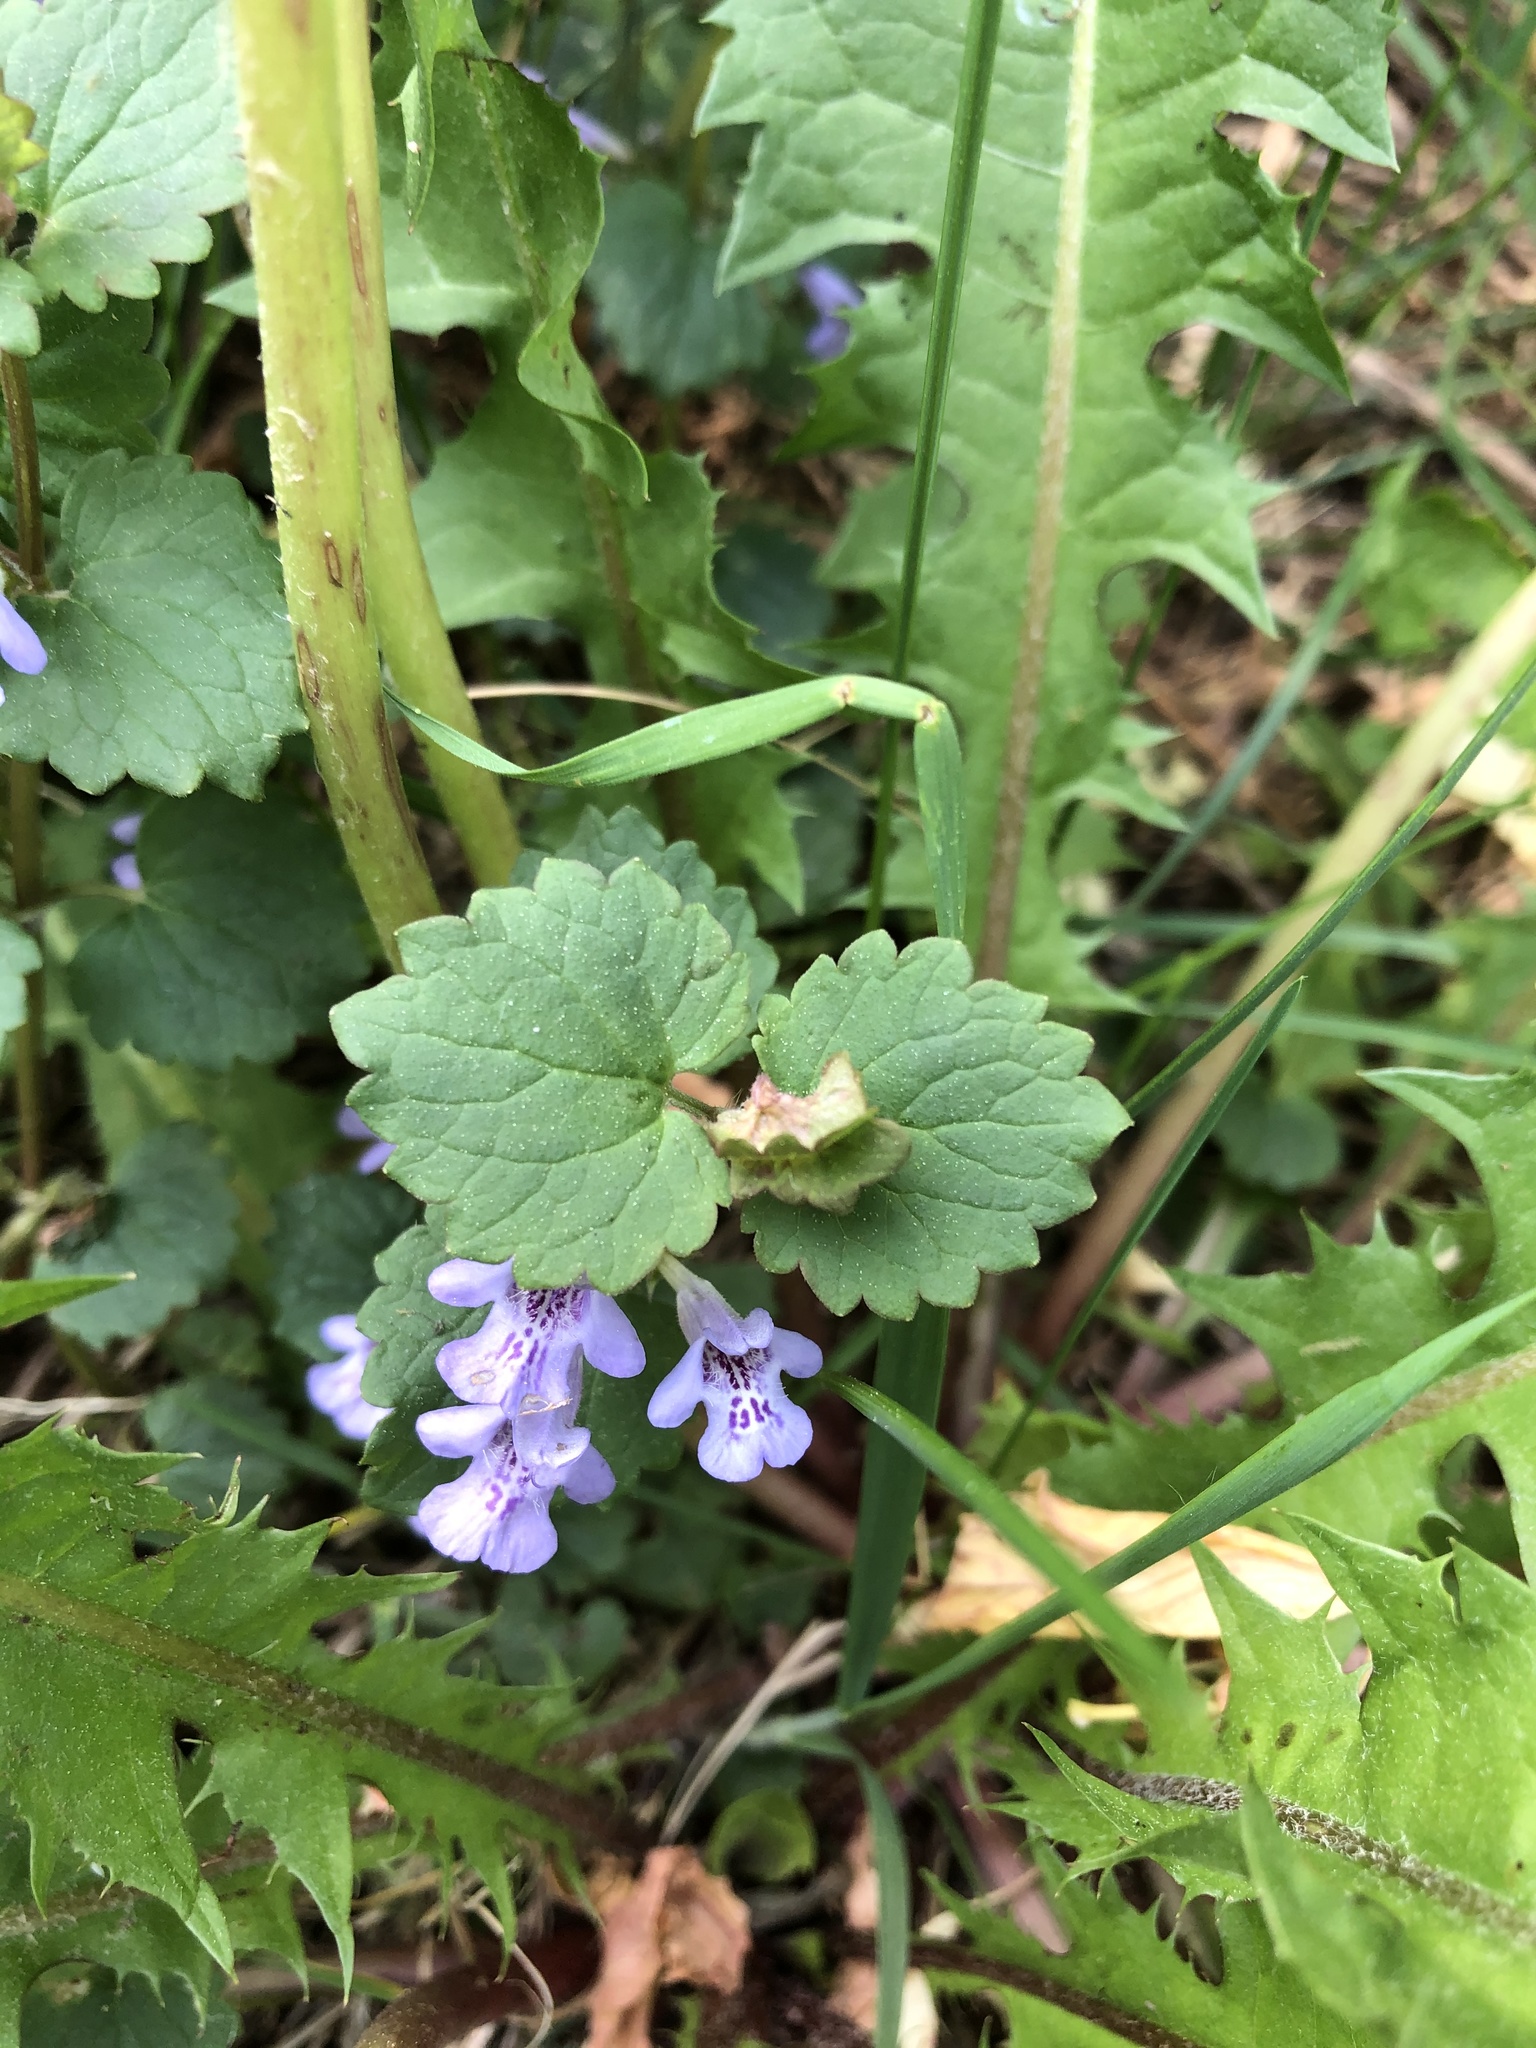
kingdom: Plantae
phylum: Tracheophyta
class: Magnoliopsida
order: Lamiales
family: Lamiaceae
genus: Glechoma
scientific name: Glechoma hederacea
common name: Ground ivy
